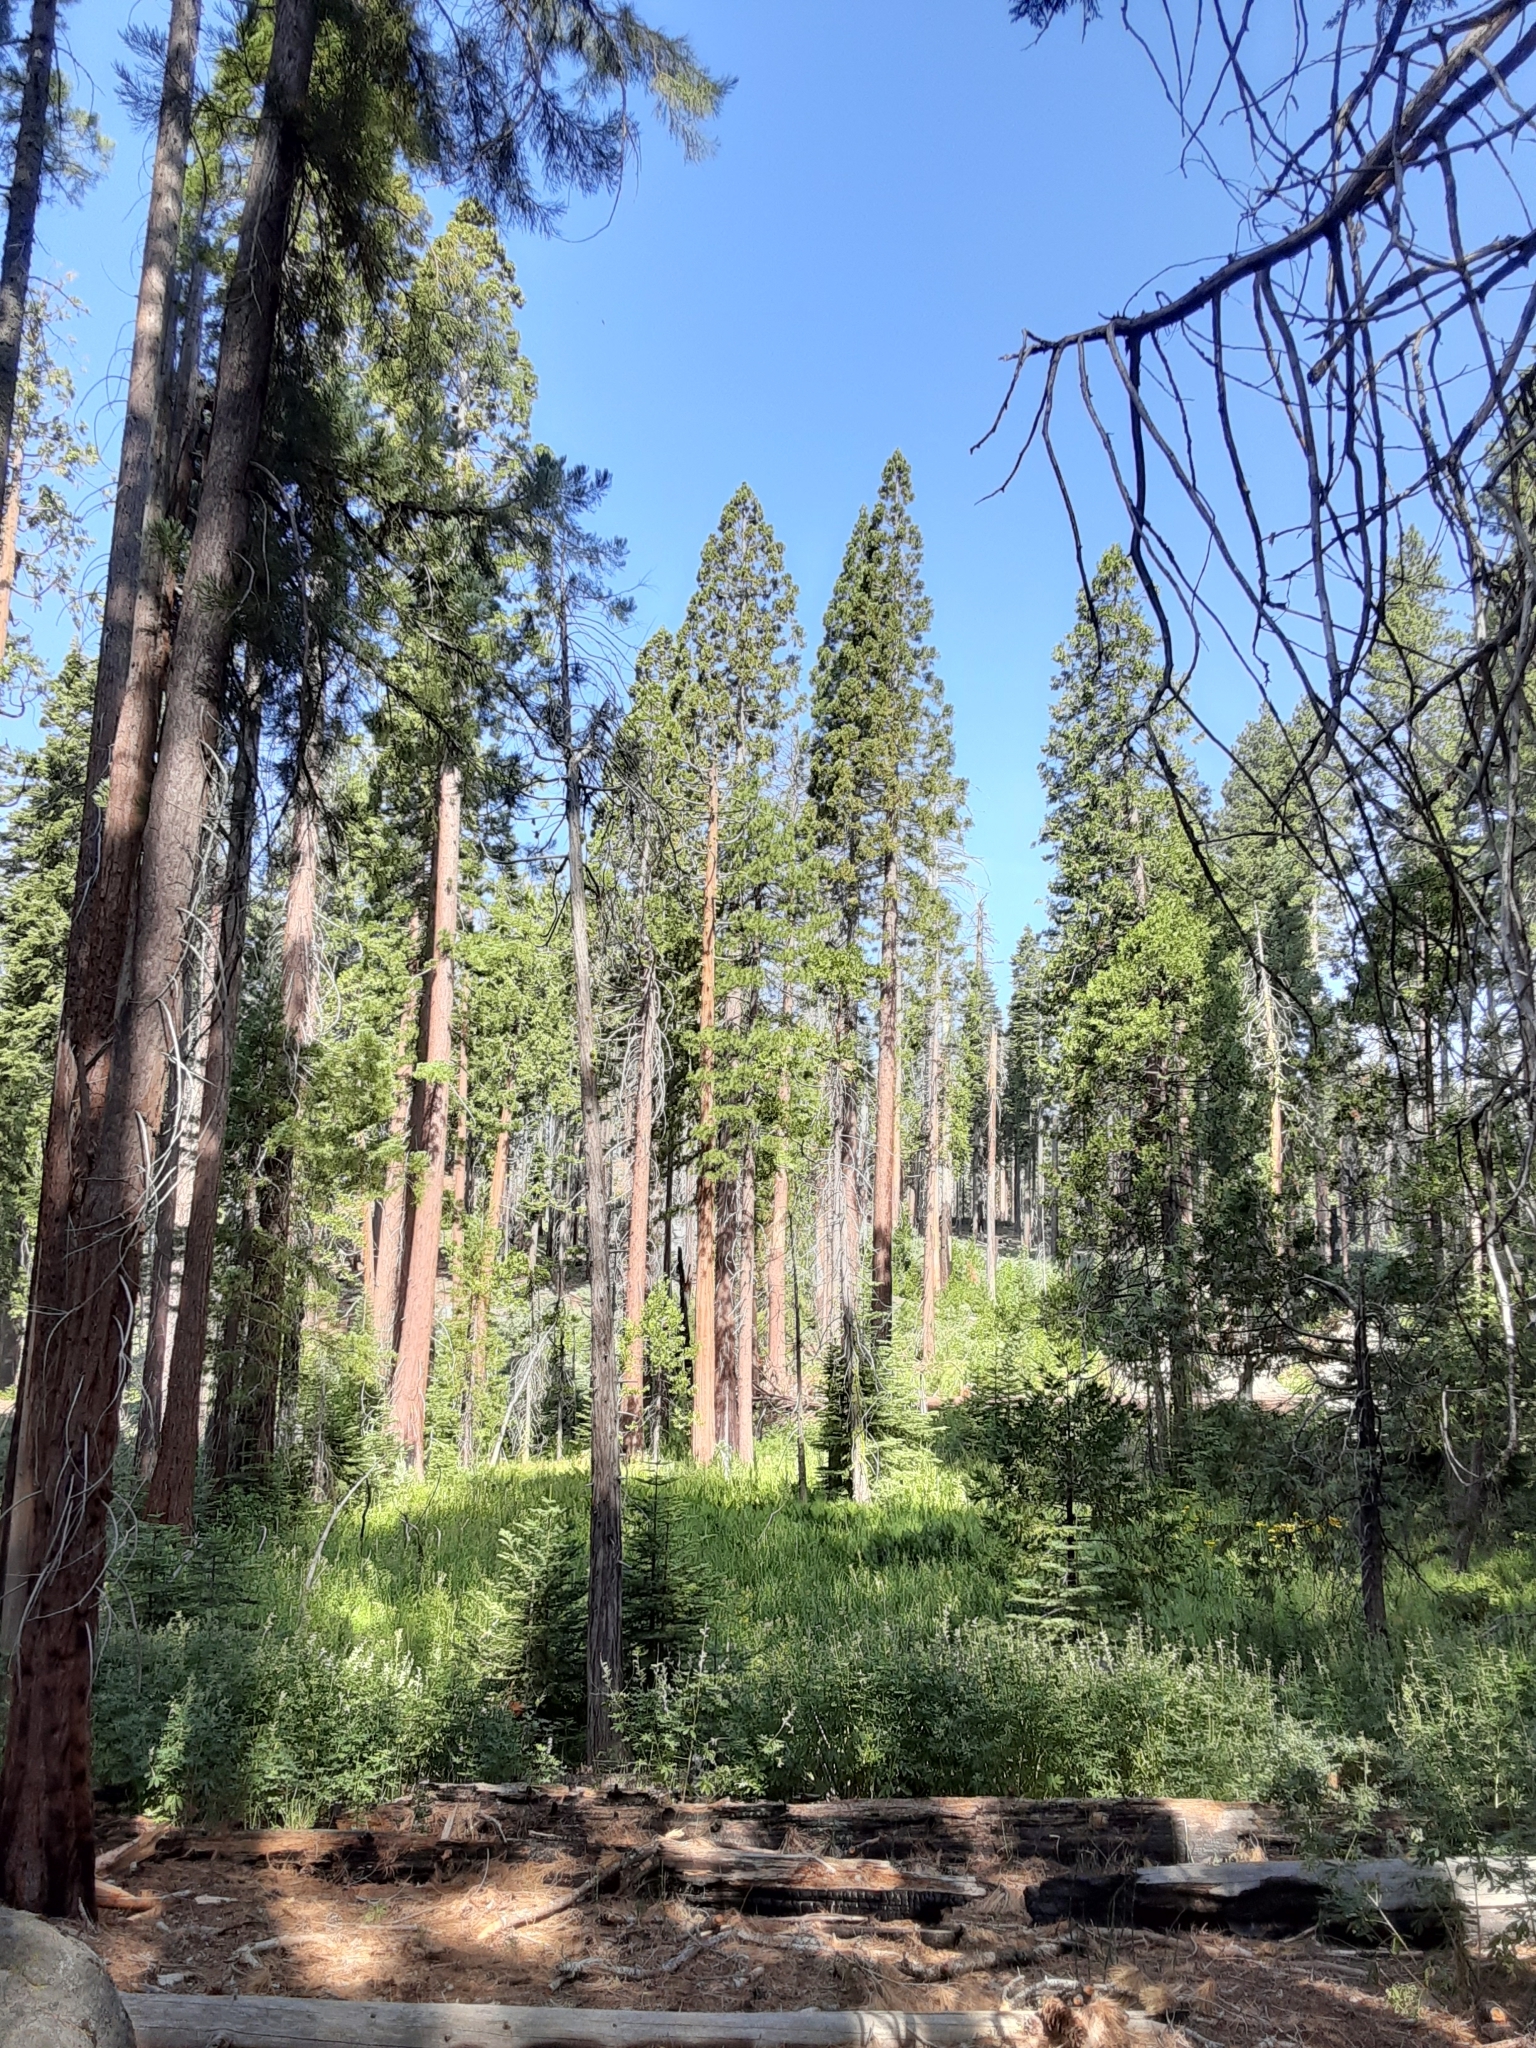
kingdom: Plantae
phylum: Tracheophyta
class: Pinopsida
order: Pinales
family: Cupressaceae
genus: Sequoiadendron
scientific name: Sequoiadendron giganteum
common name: Wellingtonia
